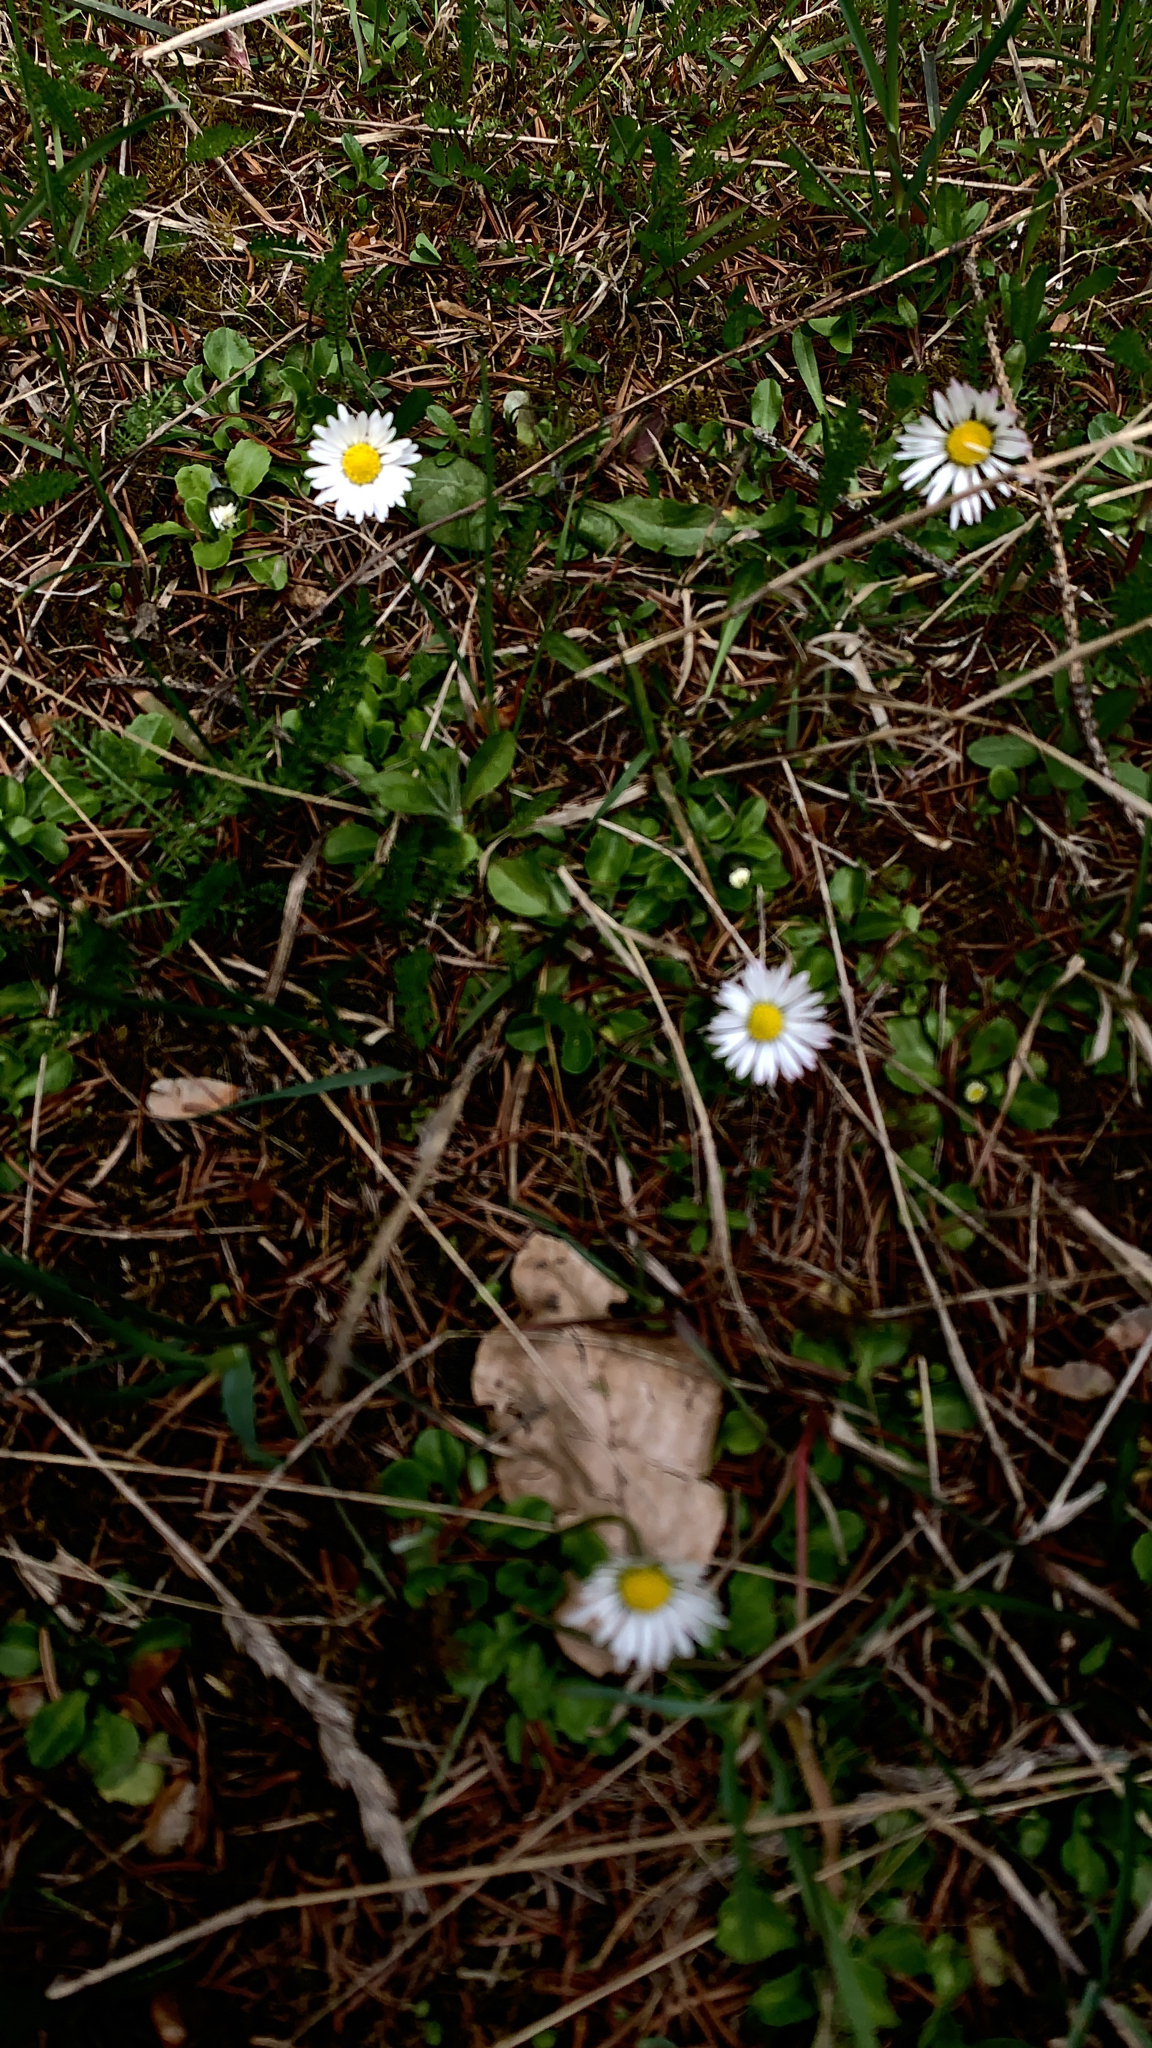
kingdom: Plantae
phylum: Tracheophyta
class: Magnoliopsida
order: Asterales
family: Asteraceae
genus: Bellis
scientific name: Bellis perennis
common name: Lawndaisy
